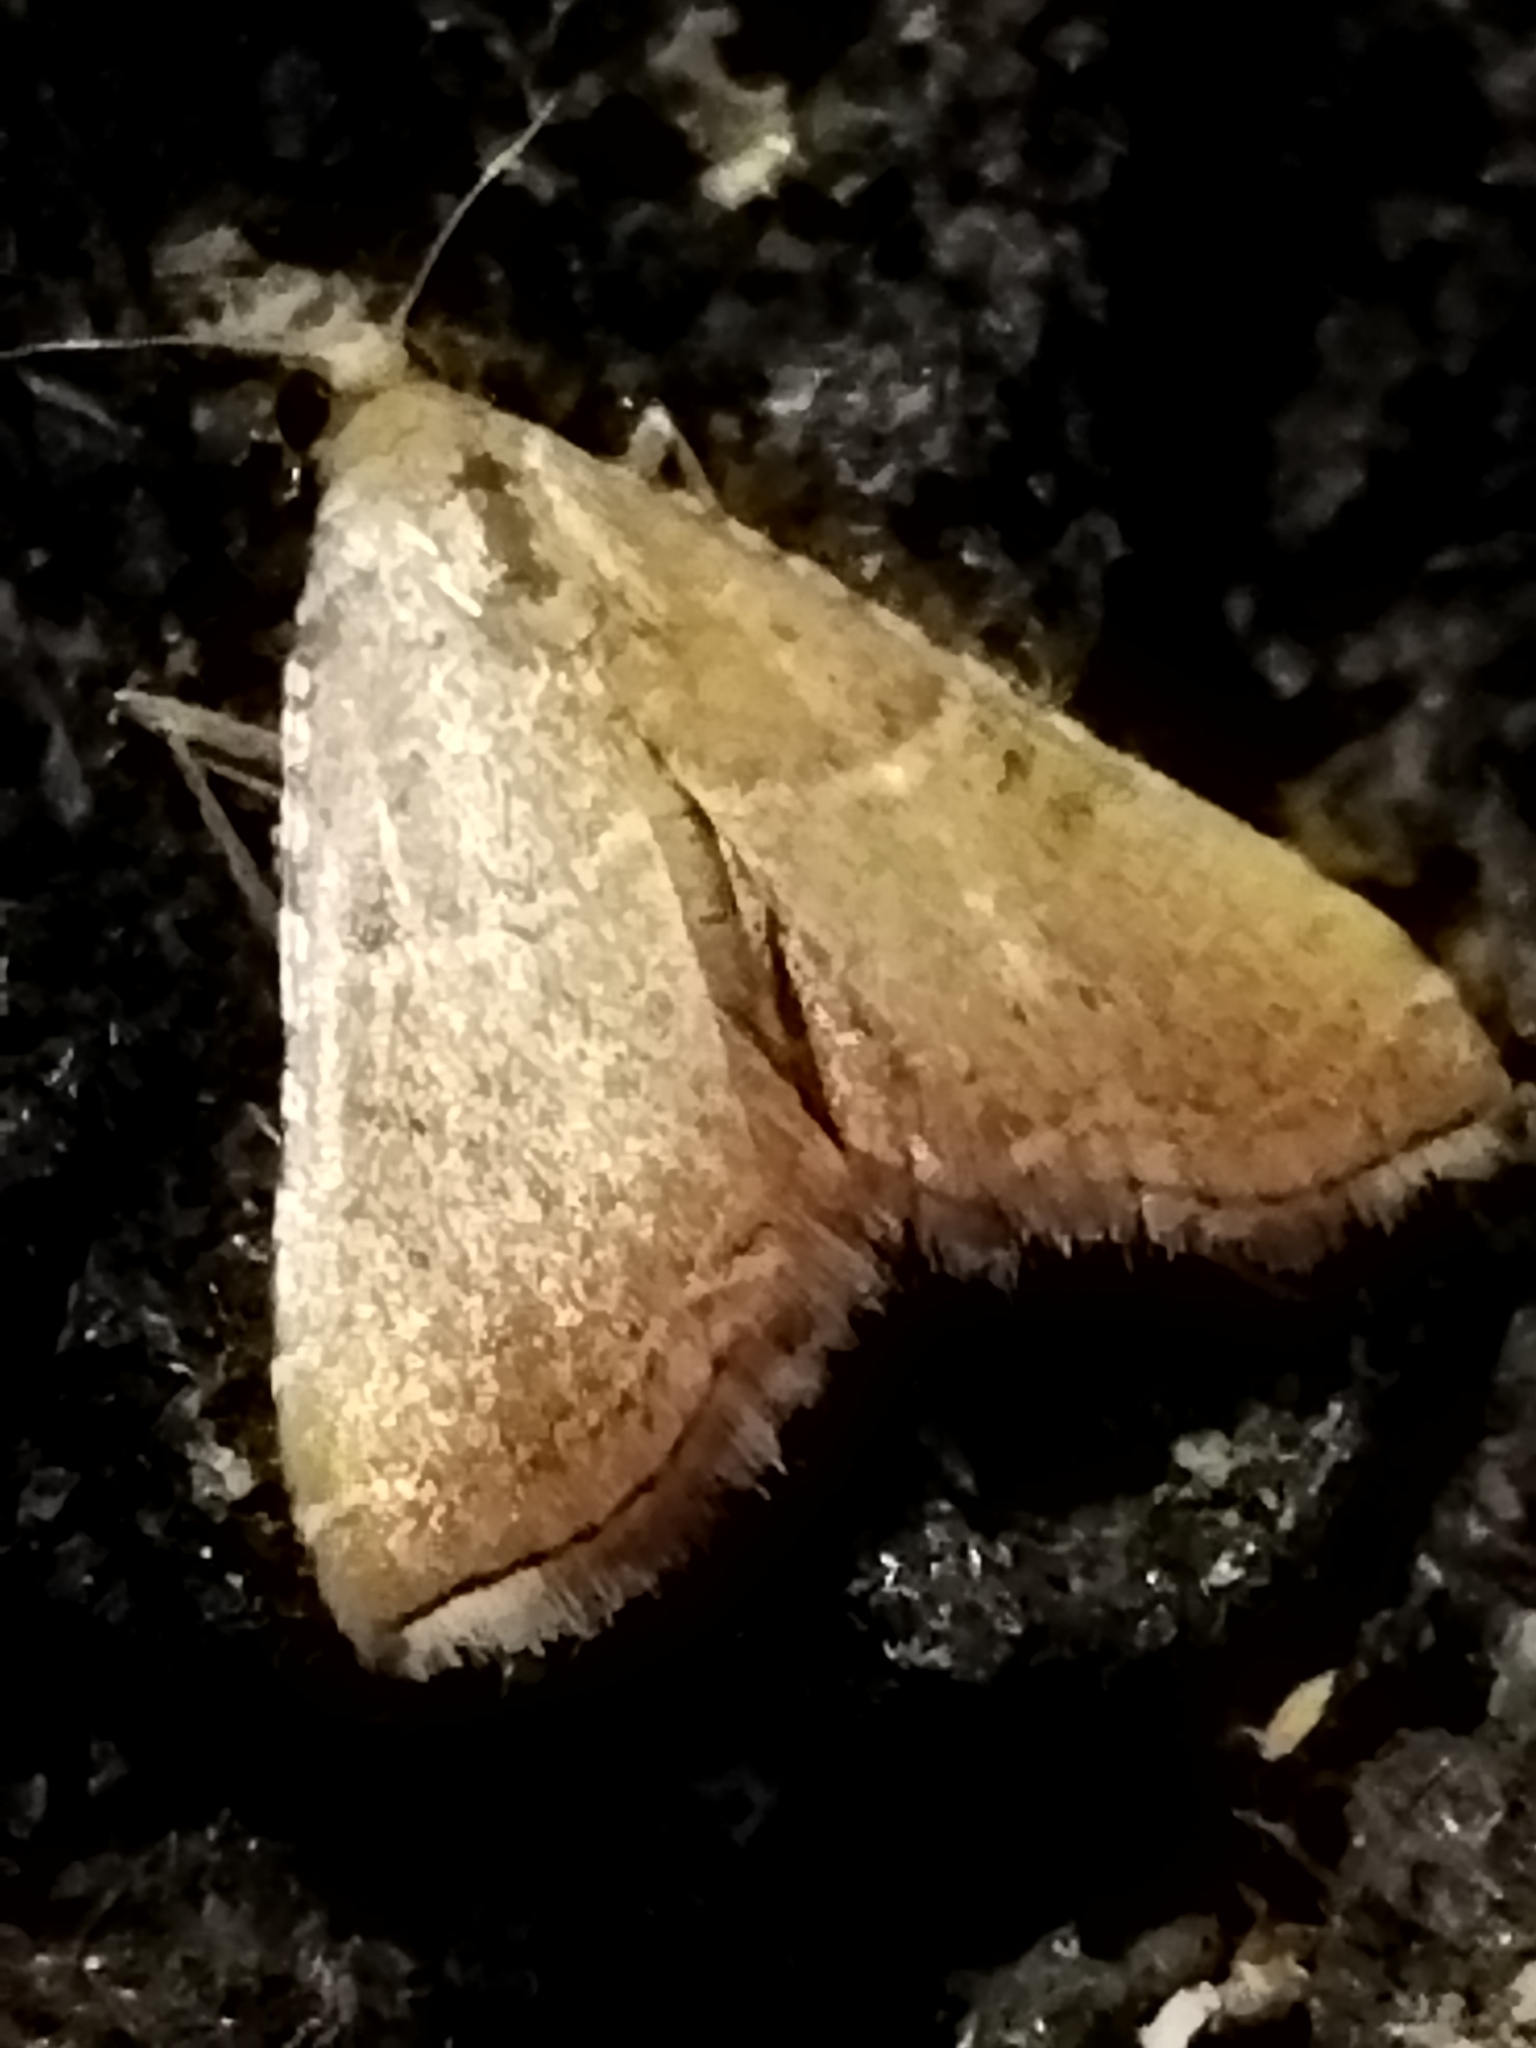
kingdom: Animalia
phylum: Arthropoda
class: Insecta
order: Lepidoptera
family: Pyralidae
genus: Endotricha
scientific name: Endotricha flammealis
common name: Rosy tabby
